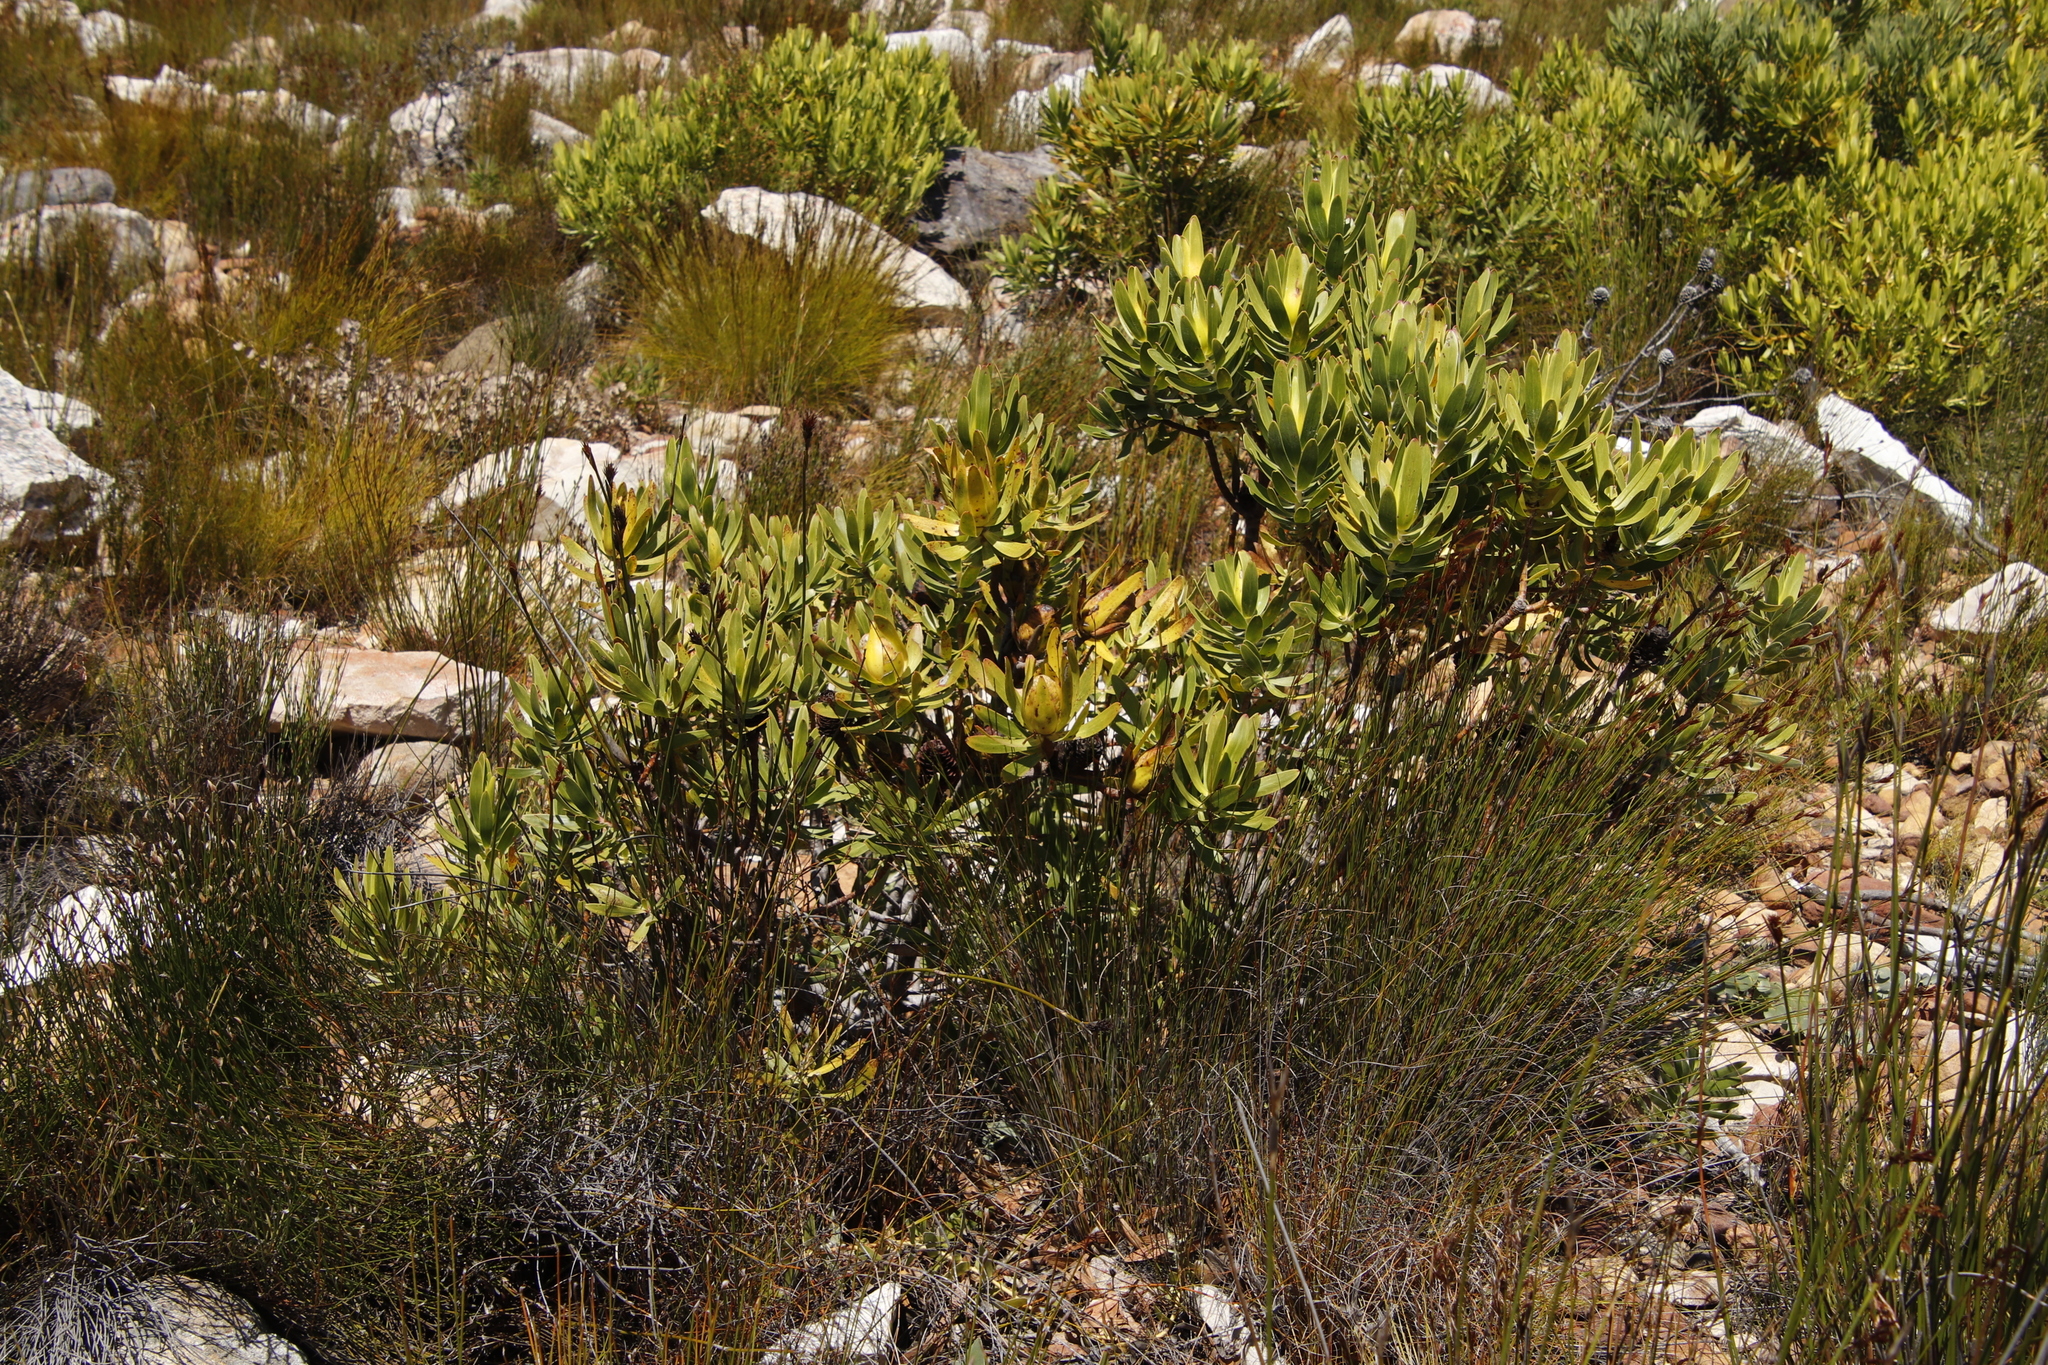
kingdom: Plantae
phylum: Tracheophyta
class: Magnoliopsida
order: Proteales
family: Proteaceae
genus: Leucadendron
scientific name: Leucadendron laureolum
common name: Golden sunshinebush
